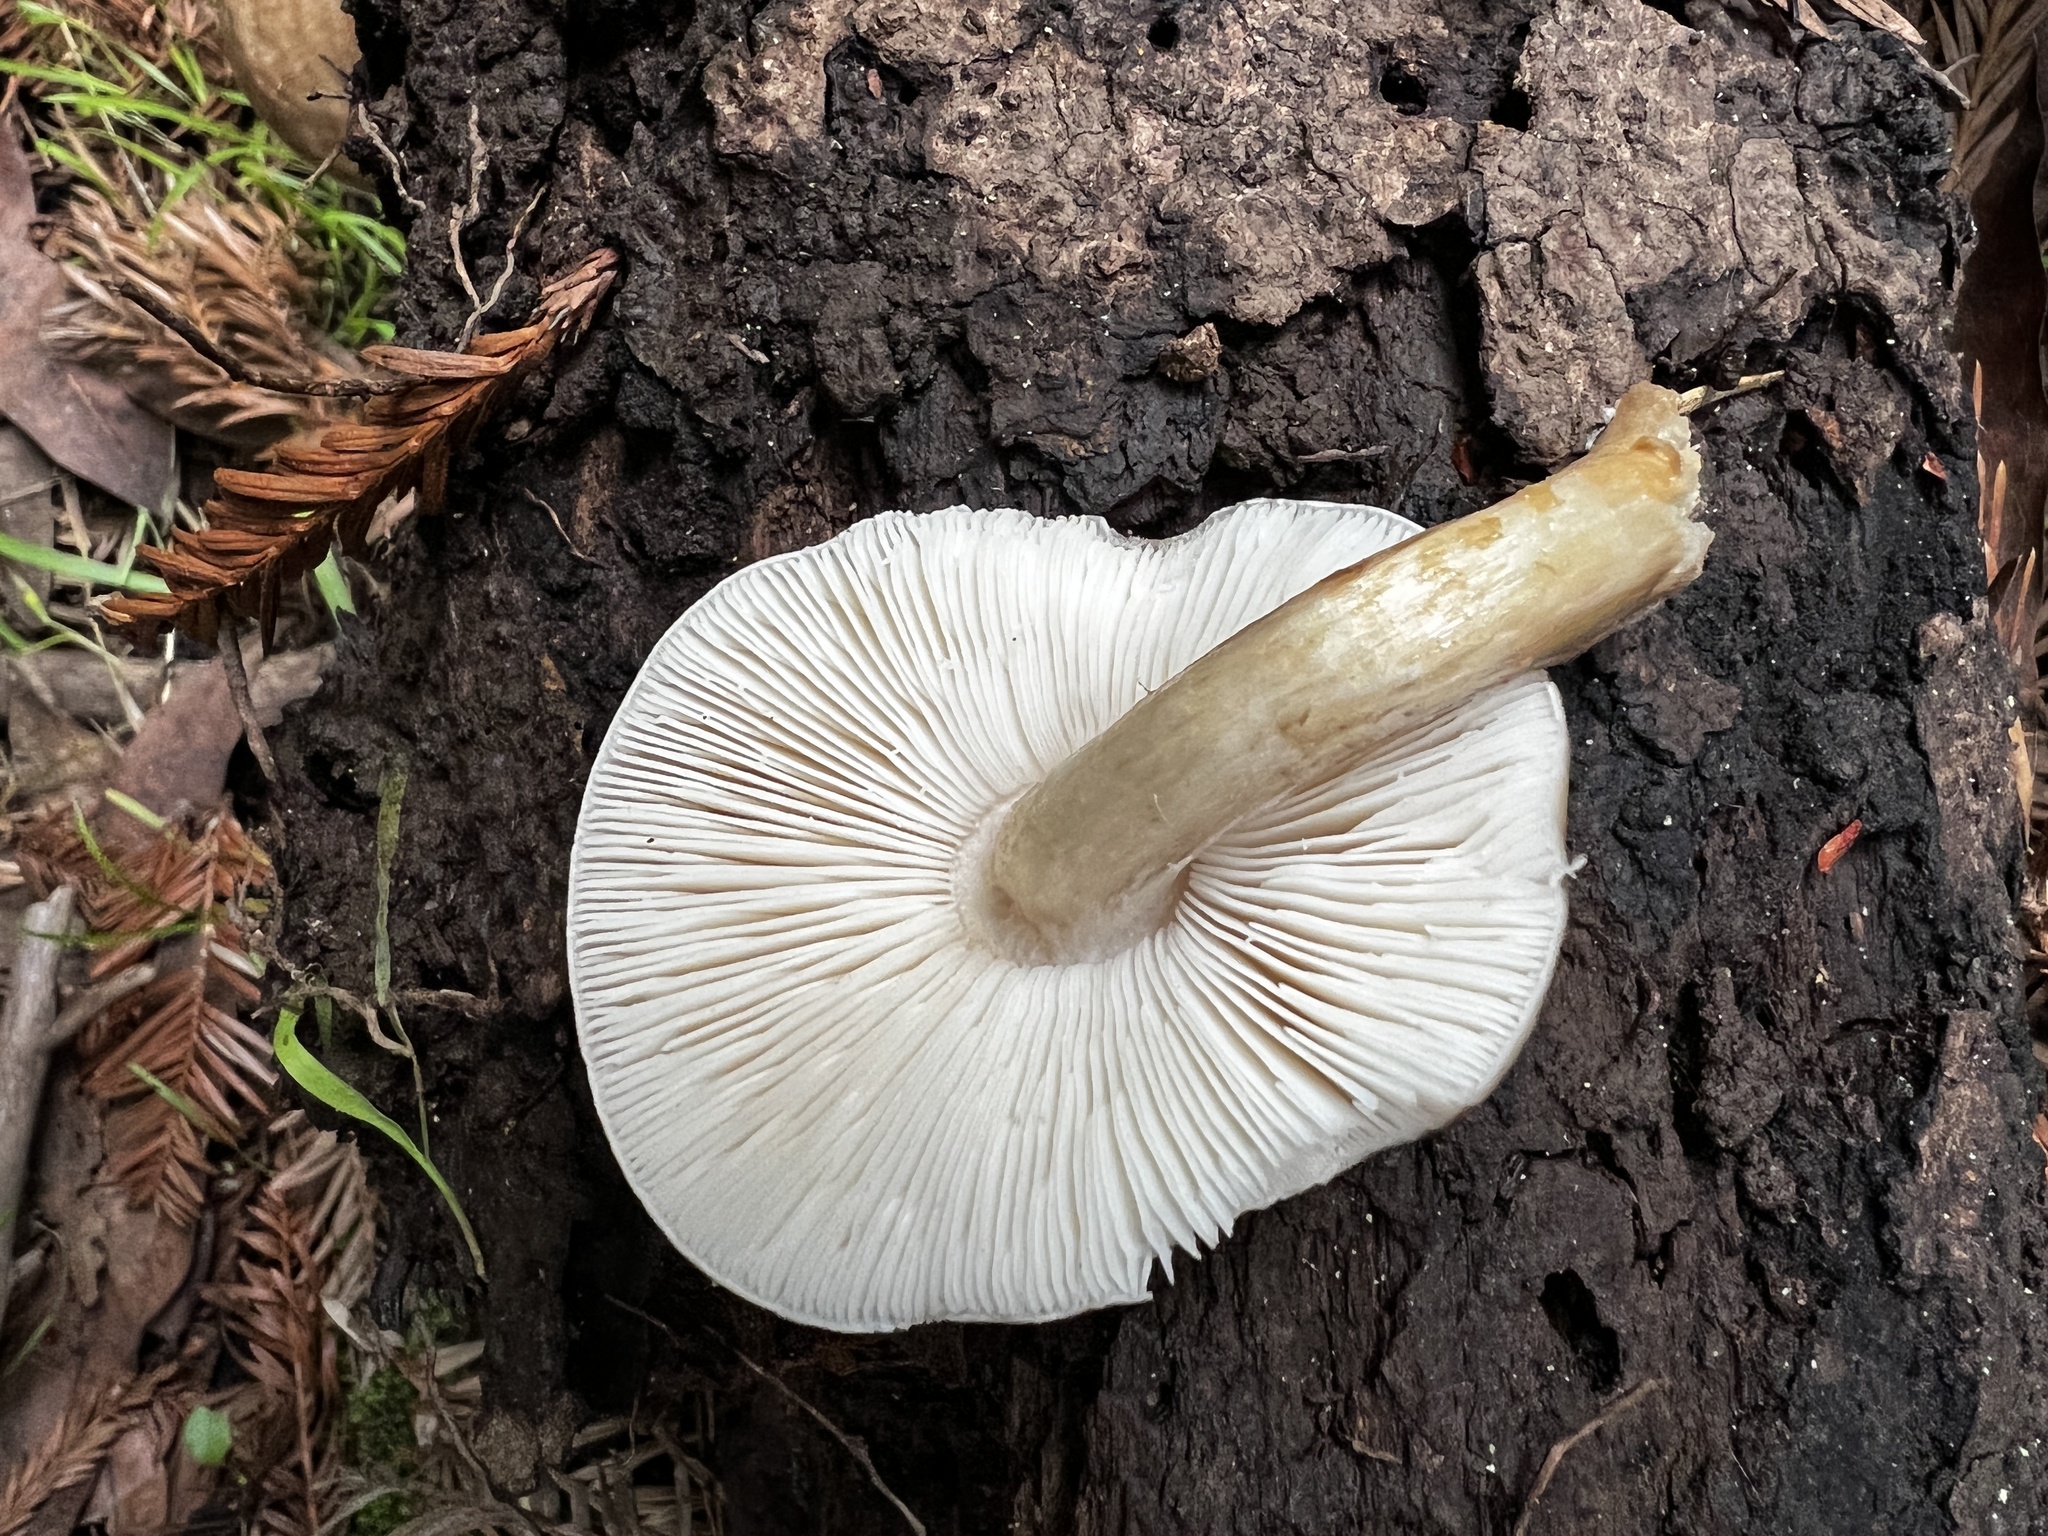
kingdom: Fungi
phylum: Basidiomycota
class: Agaricomycetes
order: Agaricales
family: Pluteaceae
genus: Pluteus
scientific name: Pluteus cervinus
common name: Deer shield
